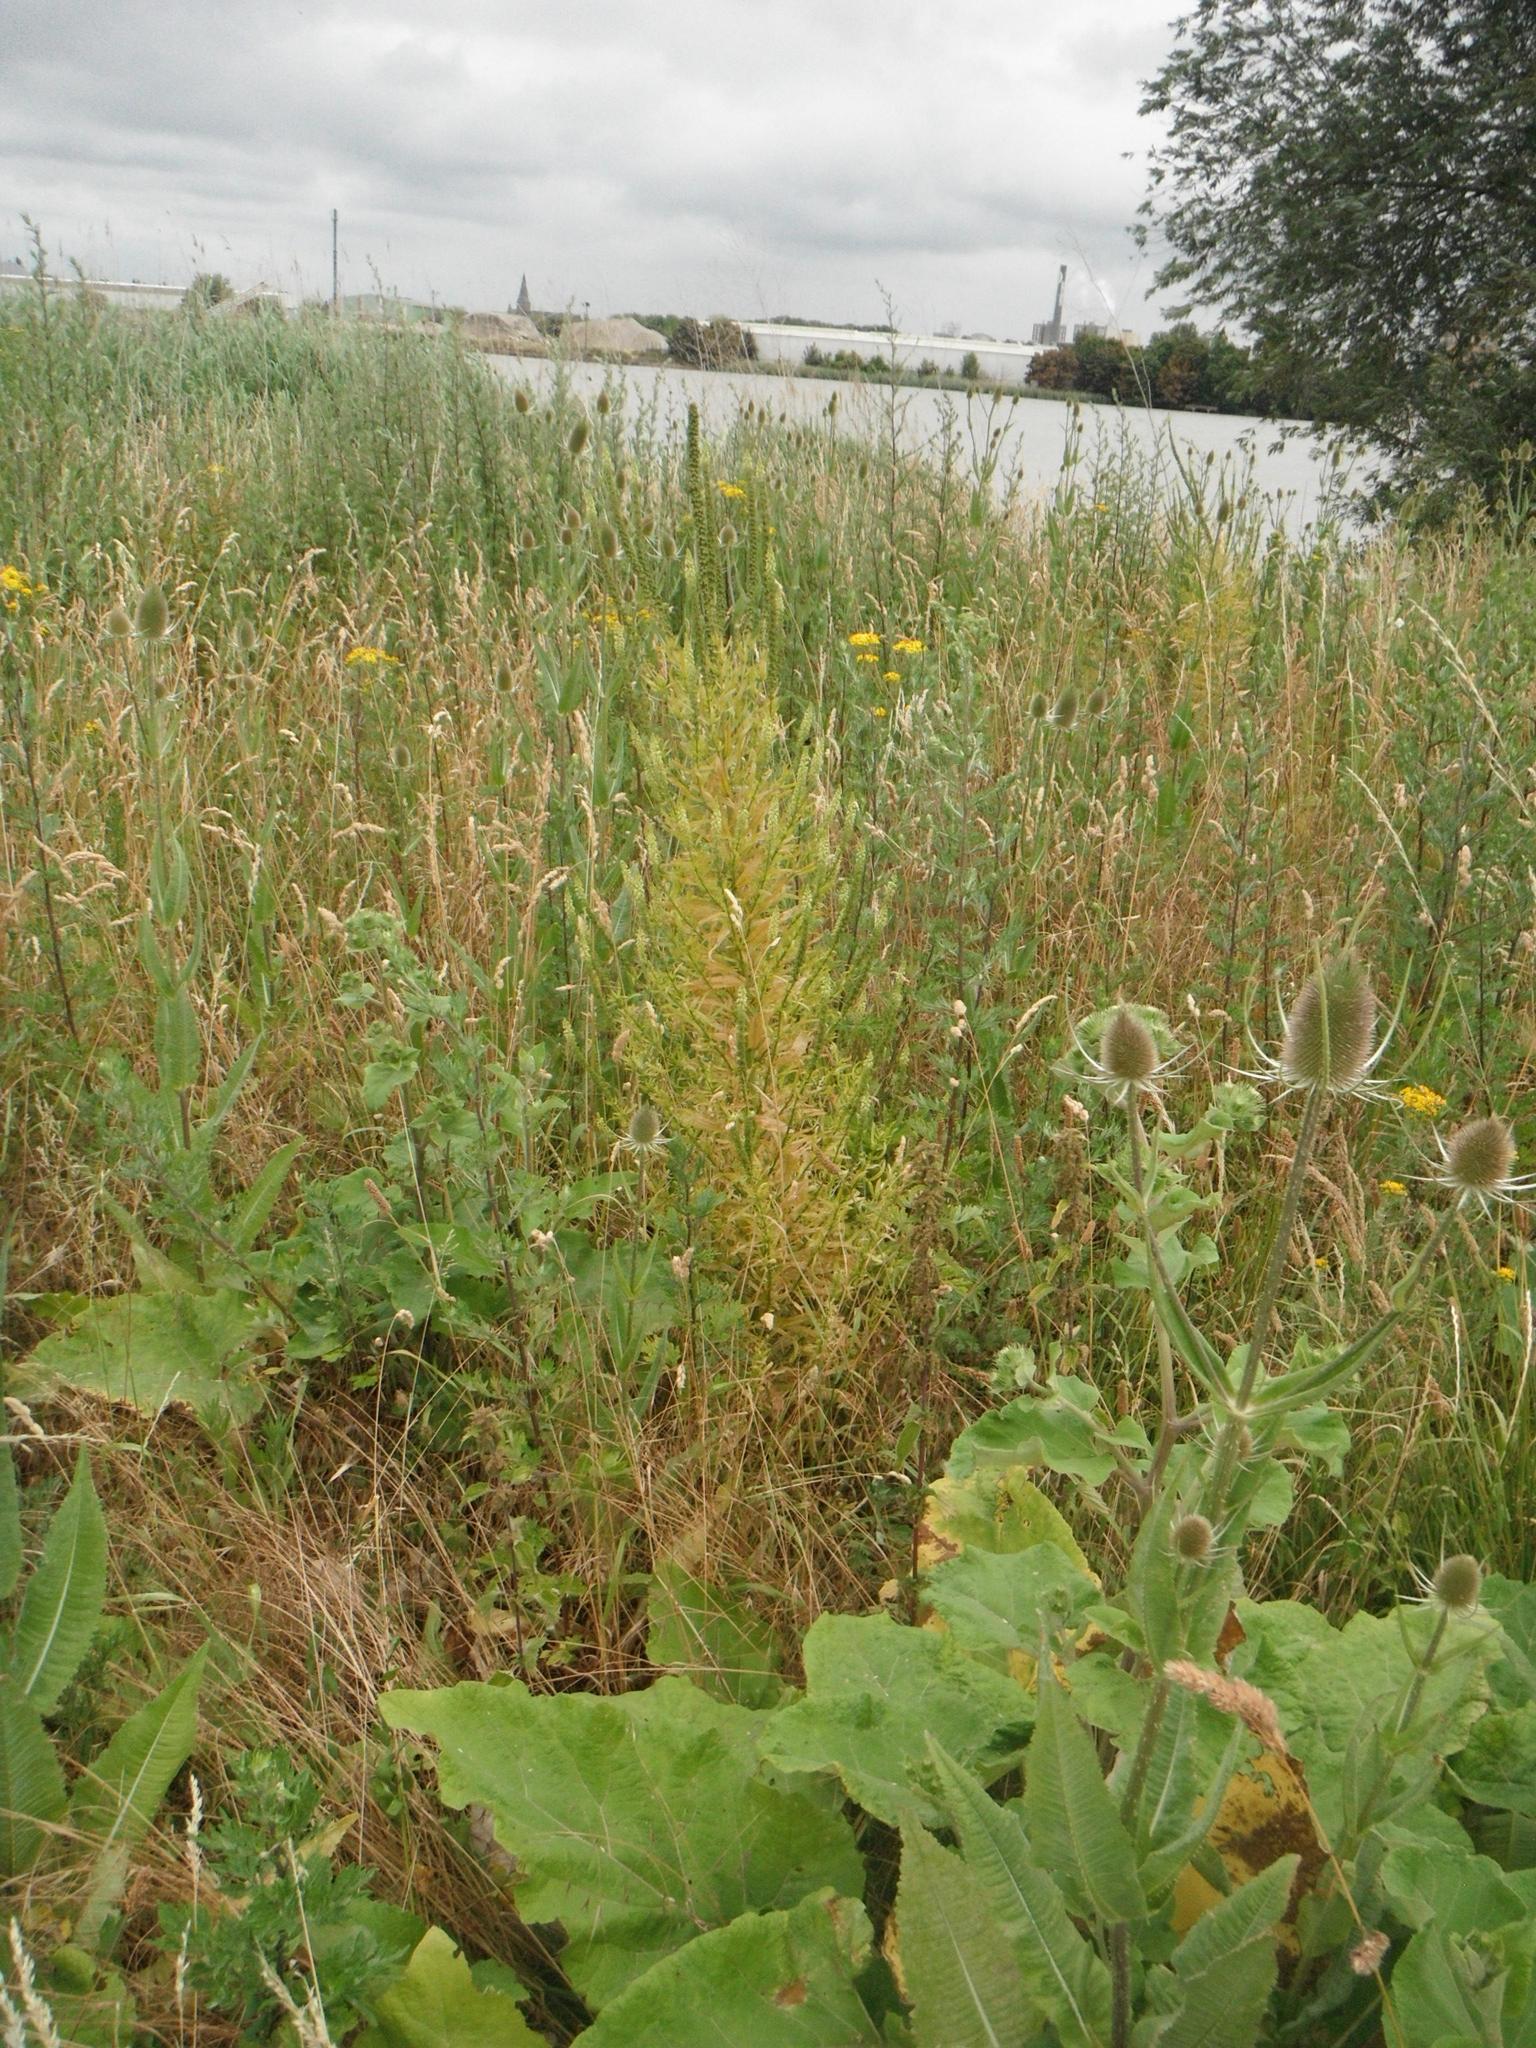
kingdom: Plantae
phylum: Tracheophyta
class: Magnoliopsida
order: Brassicales
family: Resedaceae
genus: Reseda
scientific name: Reseda luteola
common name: Weld
